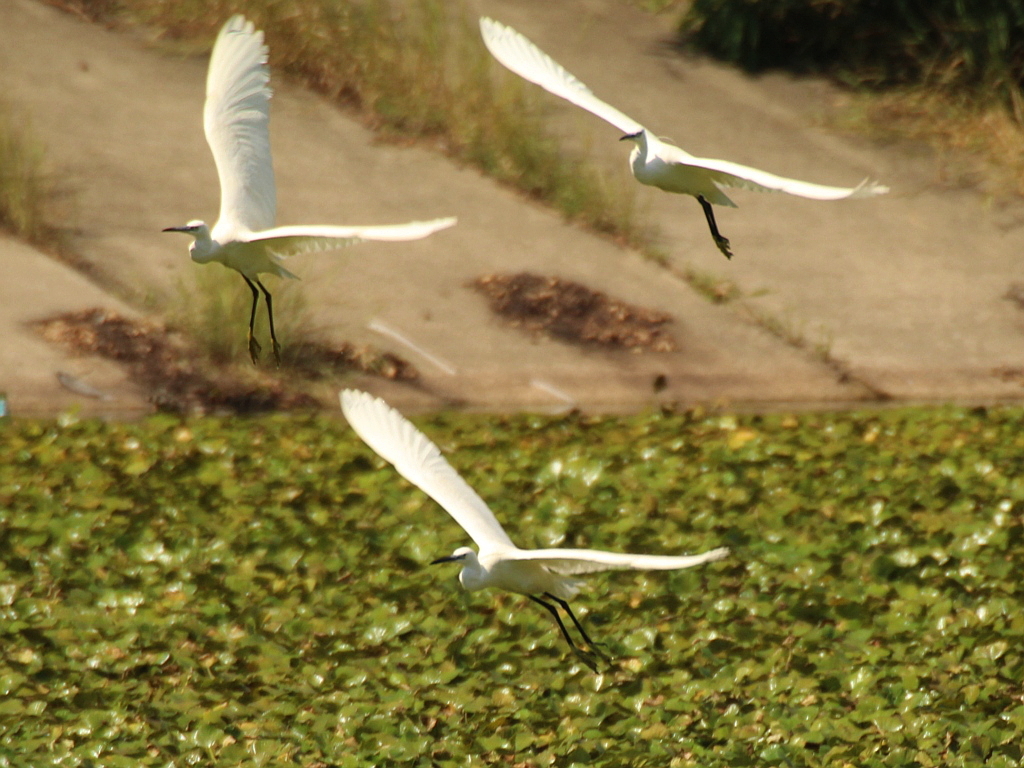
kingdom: Animalia
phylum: Chordata
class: Aves
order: Pelecaniformes
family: Ardeidae
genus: Egretta
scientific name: Egretta garzetta
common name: Little egret
